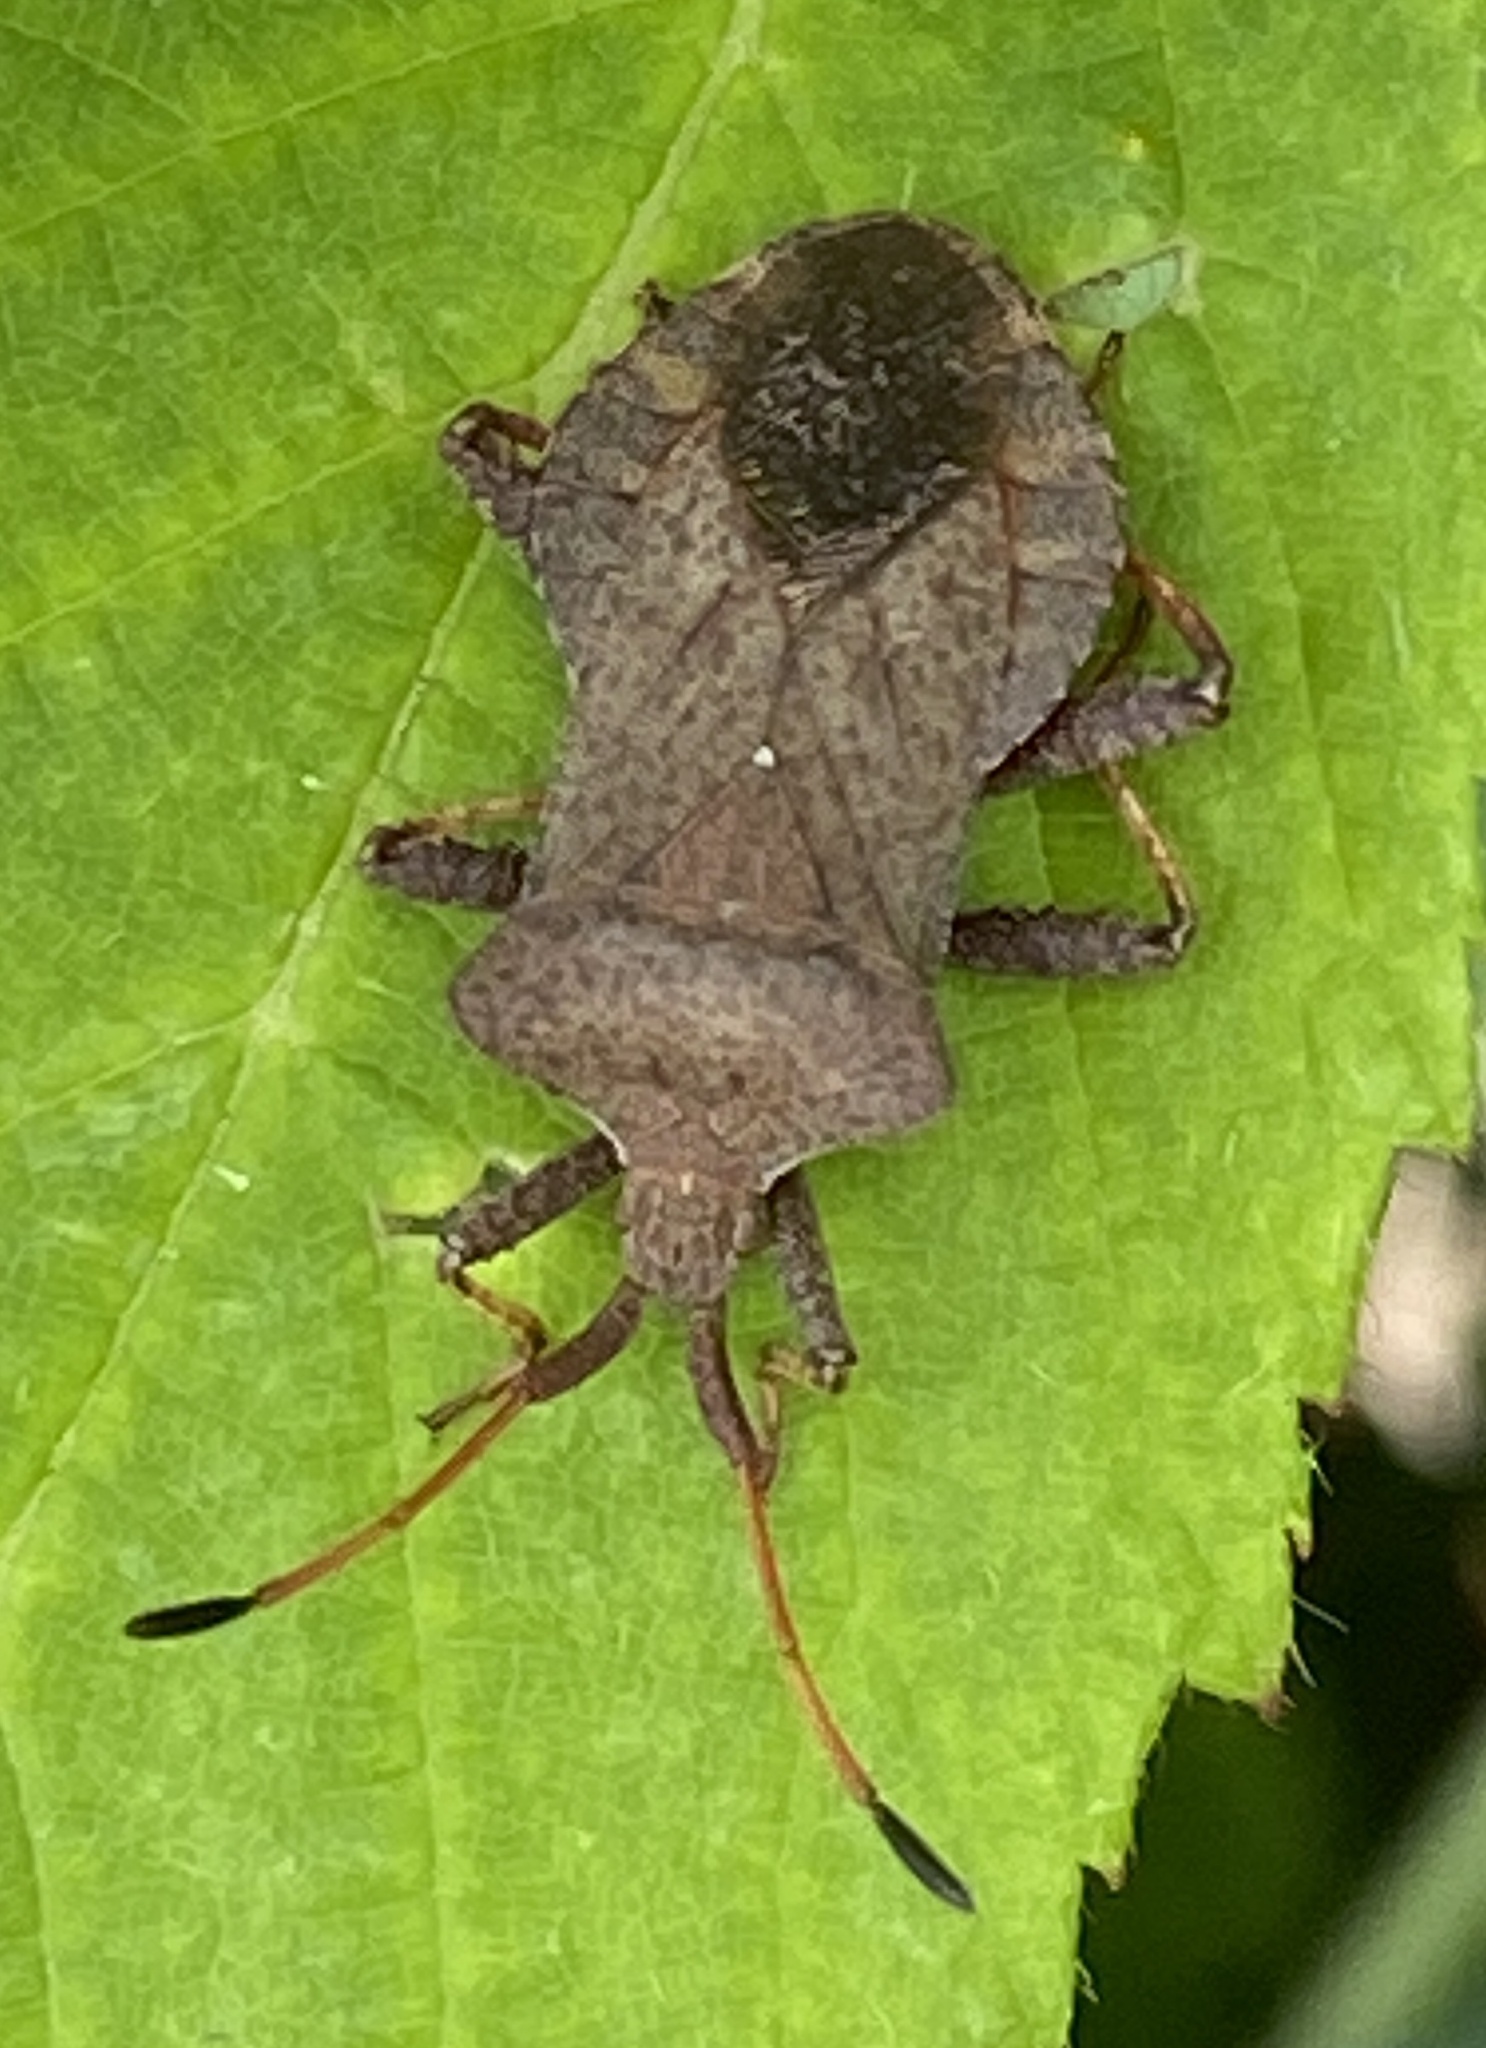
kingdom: Animalia
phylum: Arthropoda
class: Insecta
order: Hemiptera
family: Coreidae
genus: Coreus
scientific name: Coreus marginatus
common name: Dock bug
